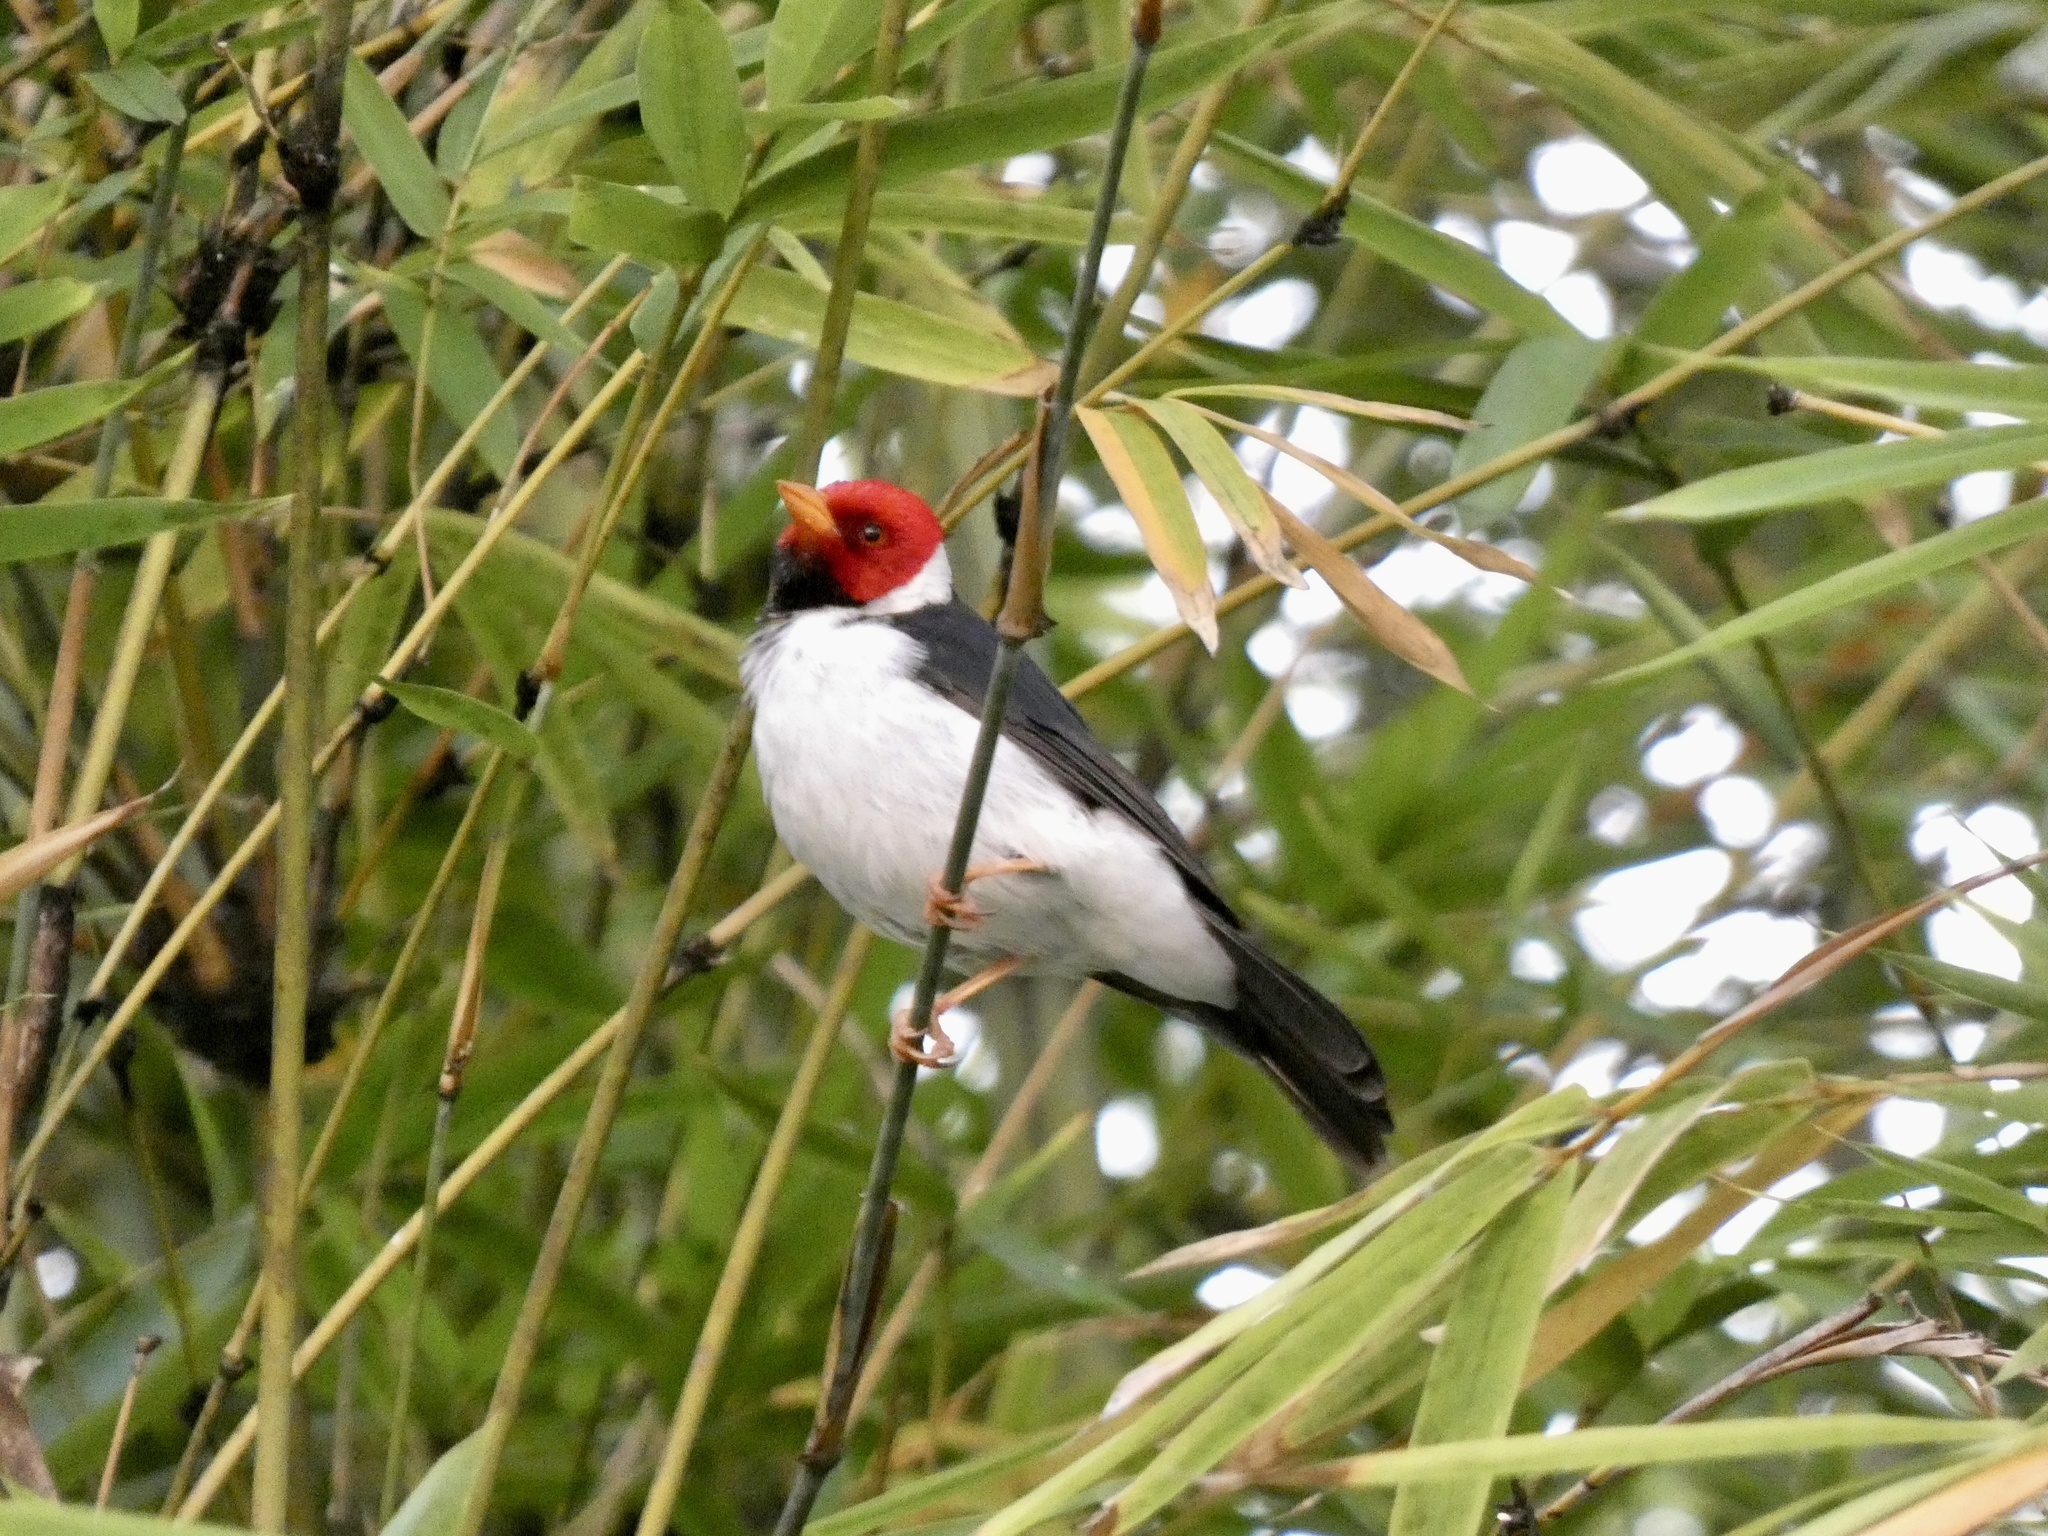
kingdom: Animalia
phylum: Chordata
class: Aves
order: Passeriformes
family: Thraupidae
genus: Paroaria
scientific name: Paroaria capitata
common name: Yellow-billed cardinal
